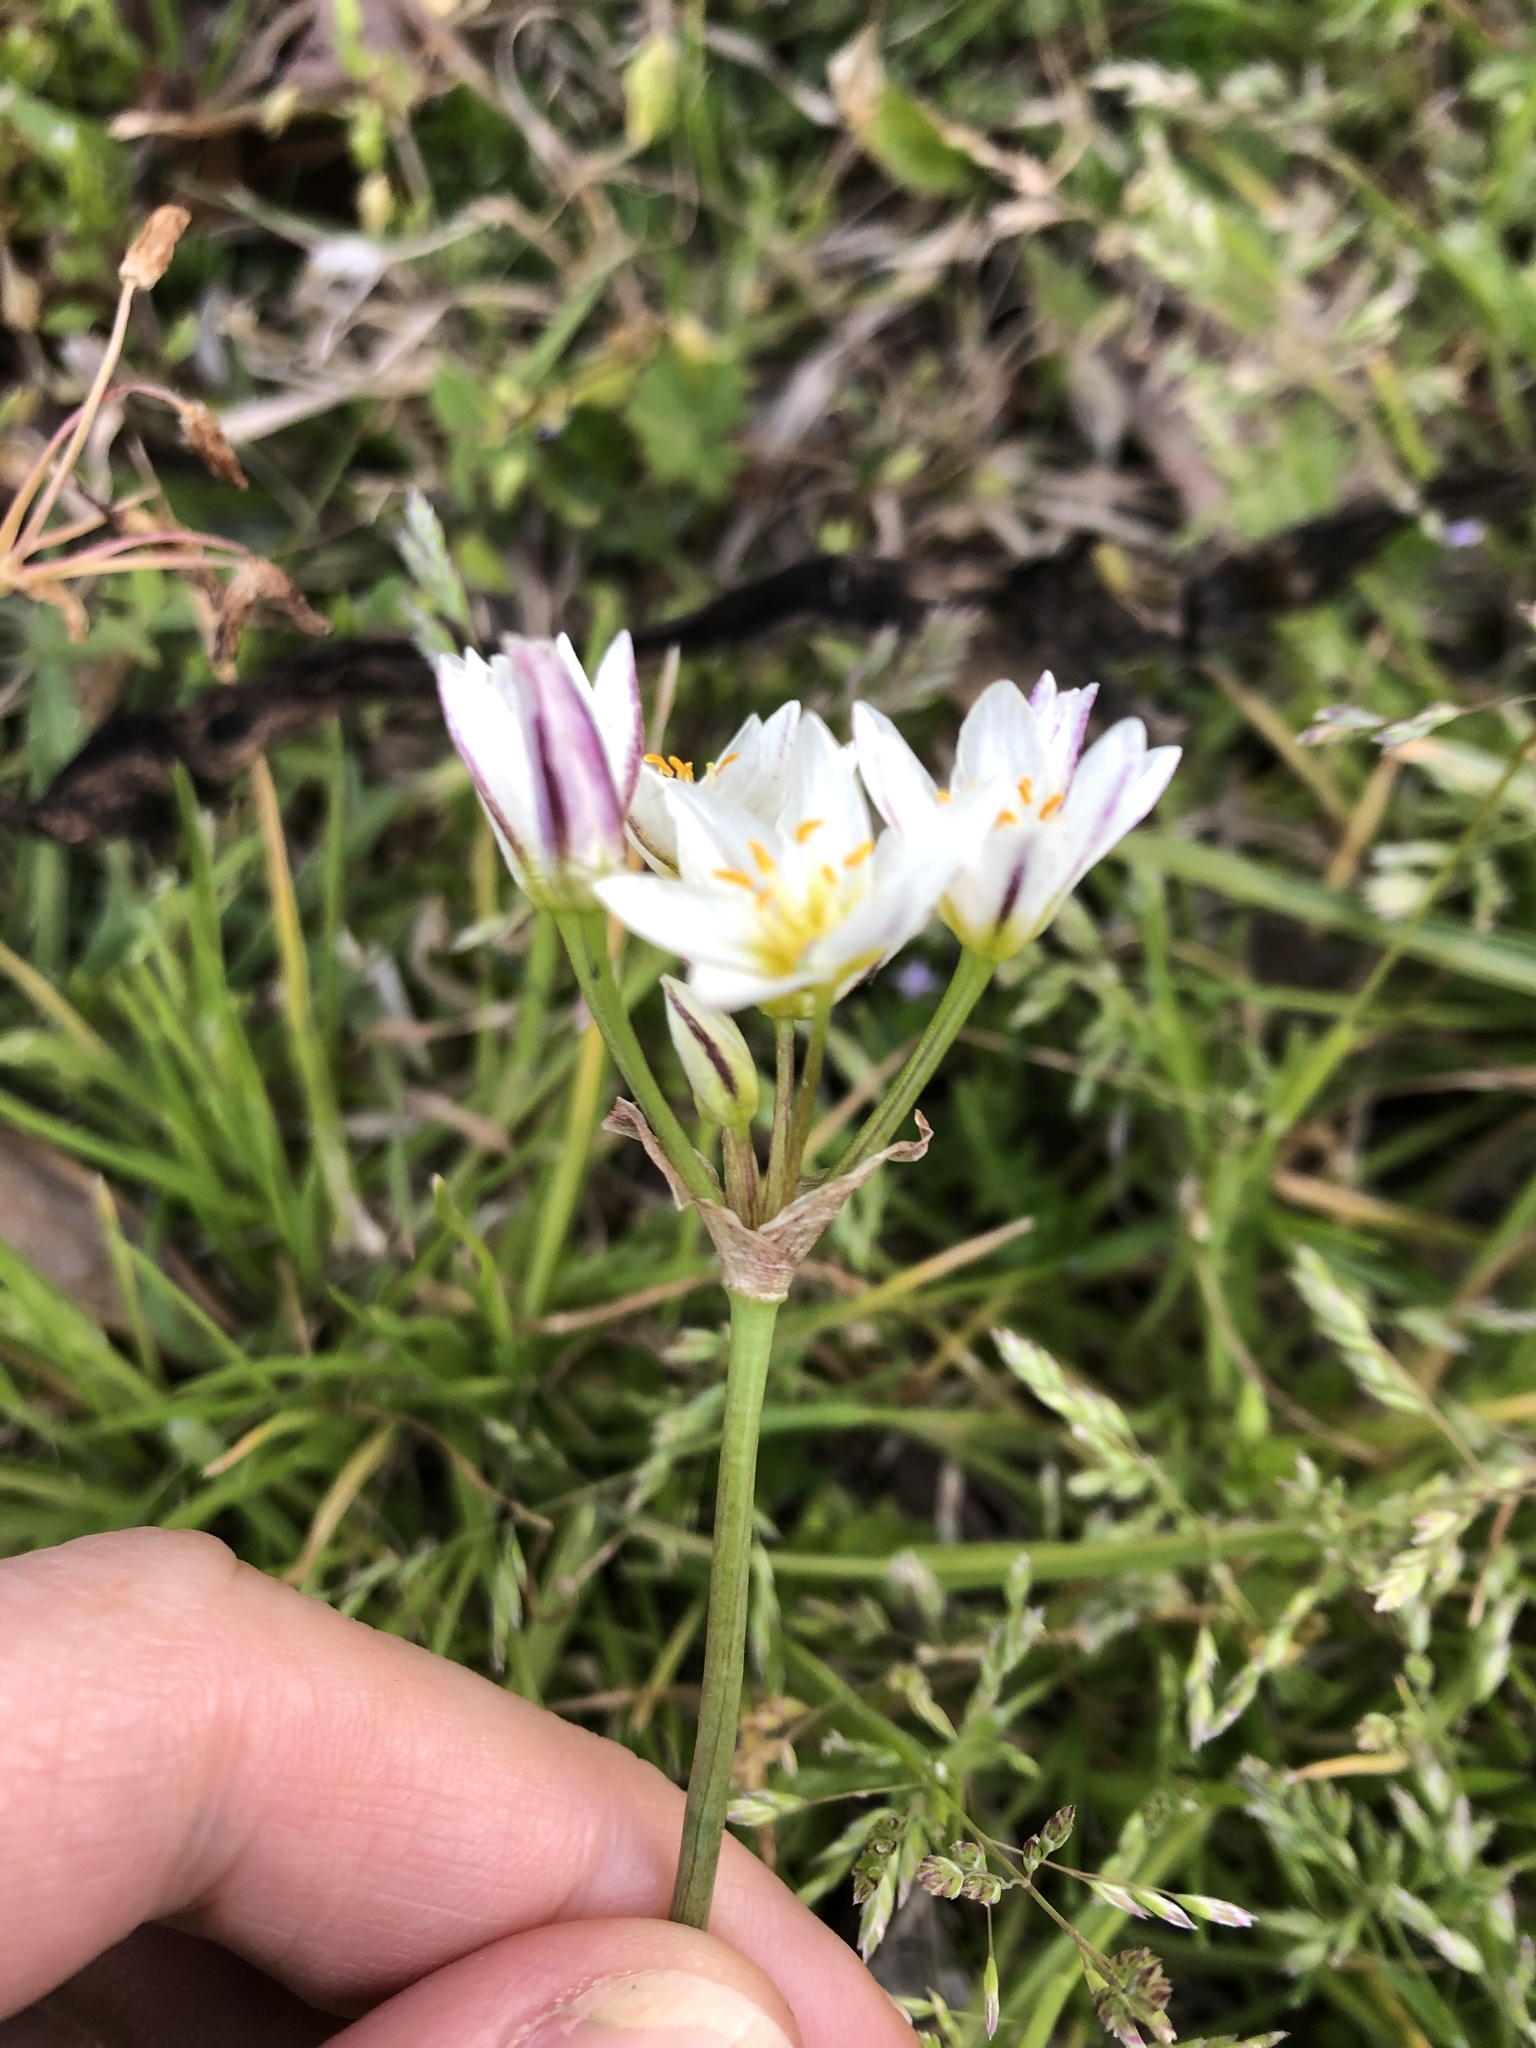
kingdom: Plantae
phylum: Tracheophyta
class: Liliopsida
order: Asparagales
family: Amaryllidaceae
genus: Nothoscordum
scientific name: Nothoscordum bivalve
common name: Crow-poison
